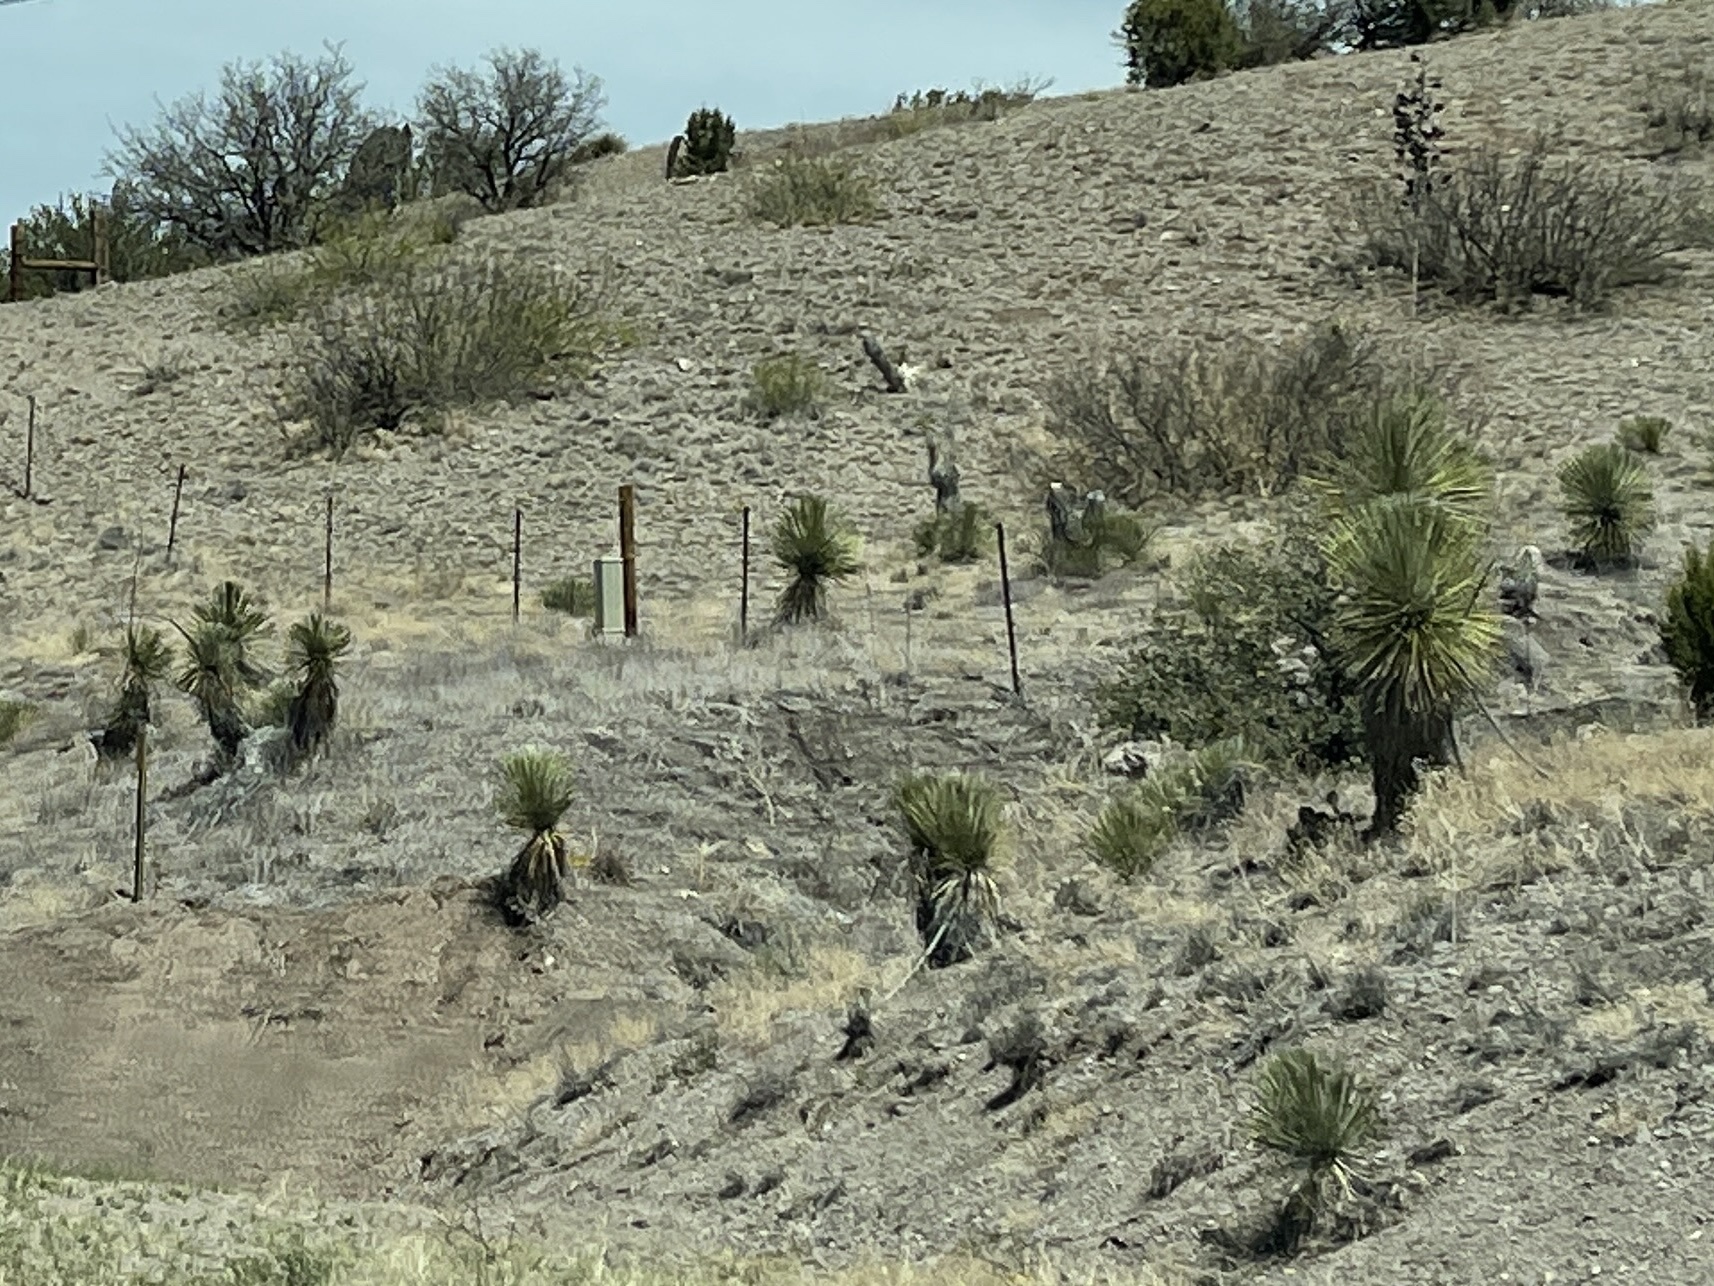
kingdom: Plantae
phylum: Tracheophyta
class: Liliopsida
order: Asparagales
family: Asparagaceae
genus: Yucca
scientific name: Yucca elata
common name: Palmella
